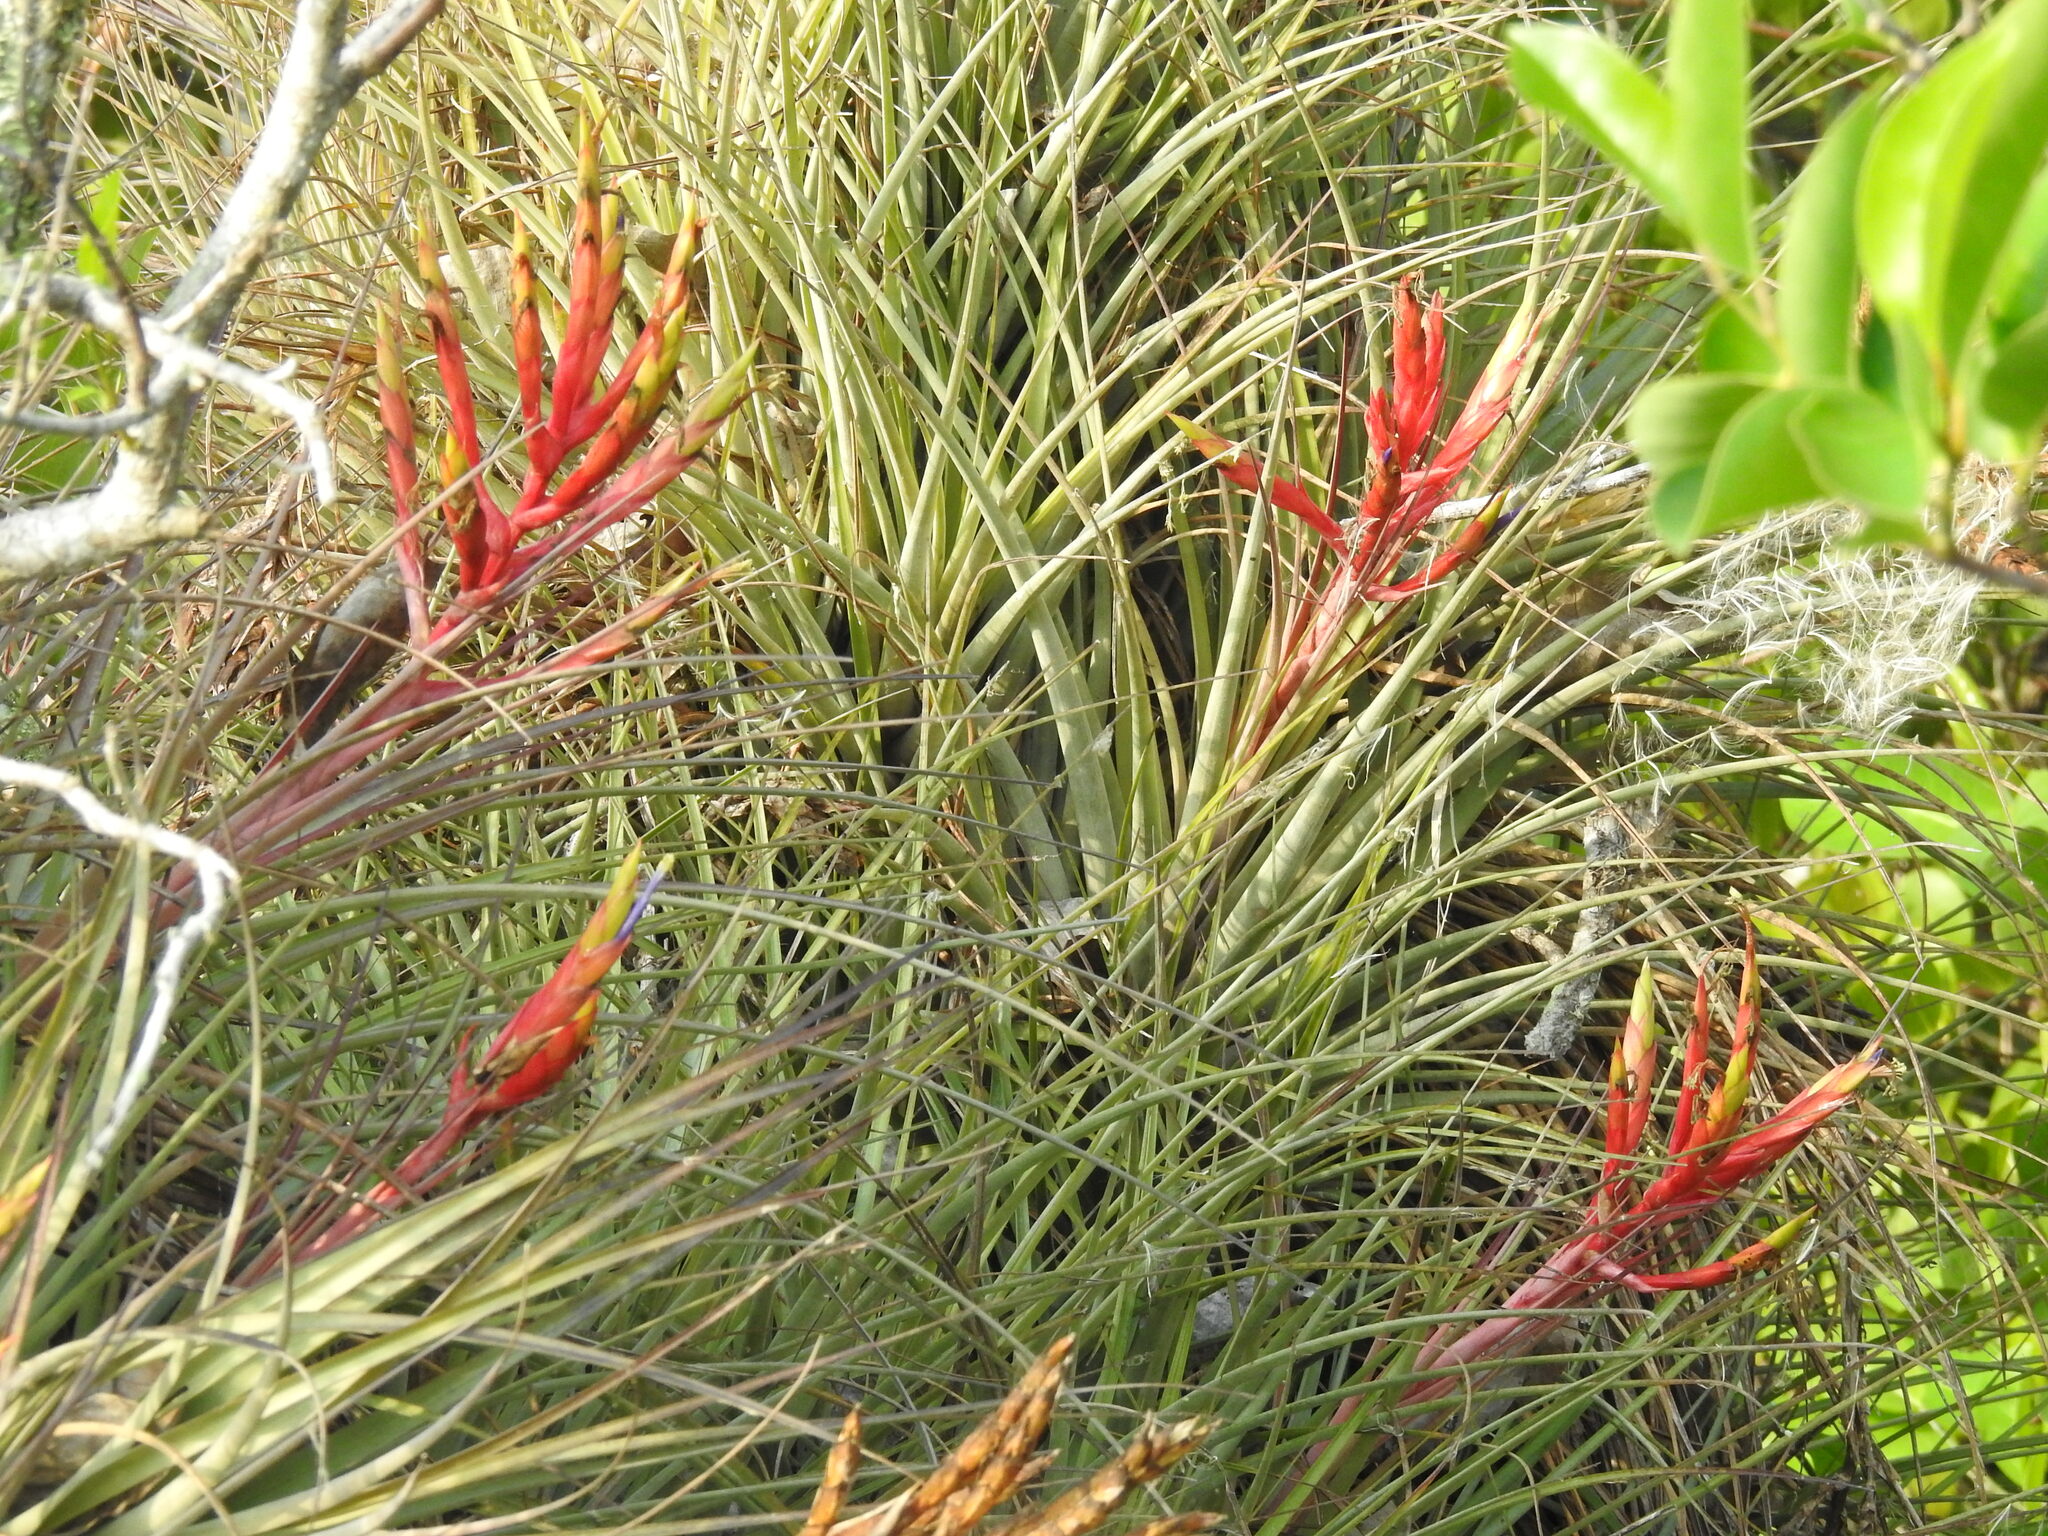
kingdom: Plantae
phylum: Tracheophyta
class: Liliopsida
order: Poales
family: Bromeliaceae
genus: Tillandsia
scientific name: Tillandsia fasciculata
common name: Giant airplant
